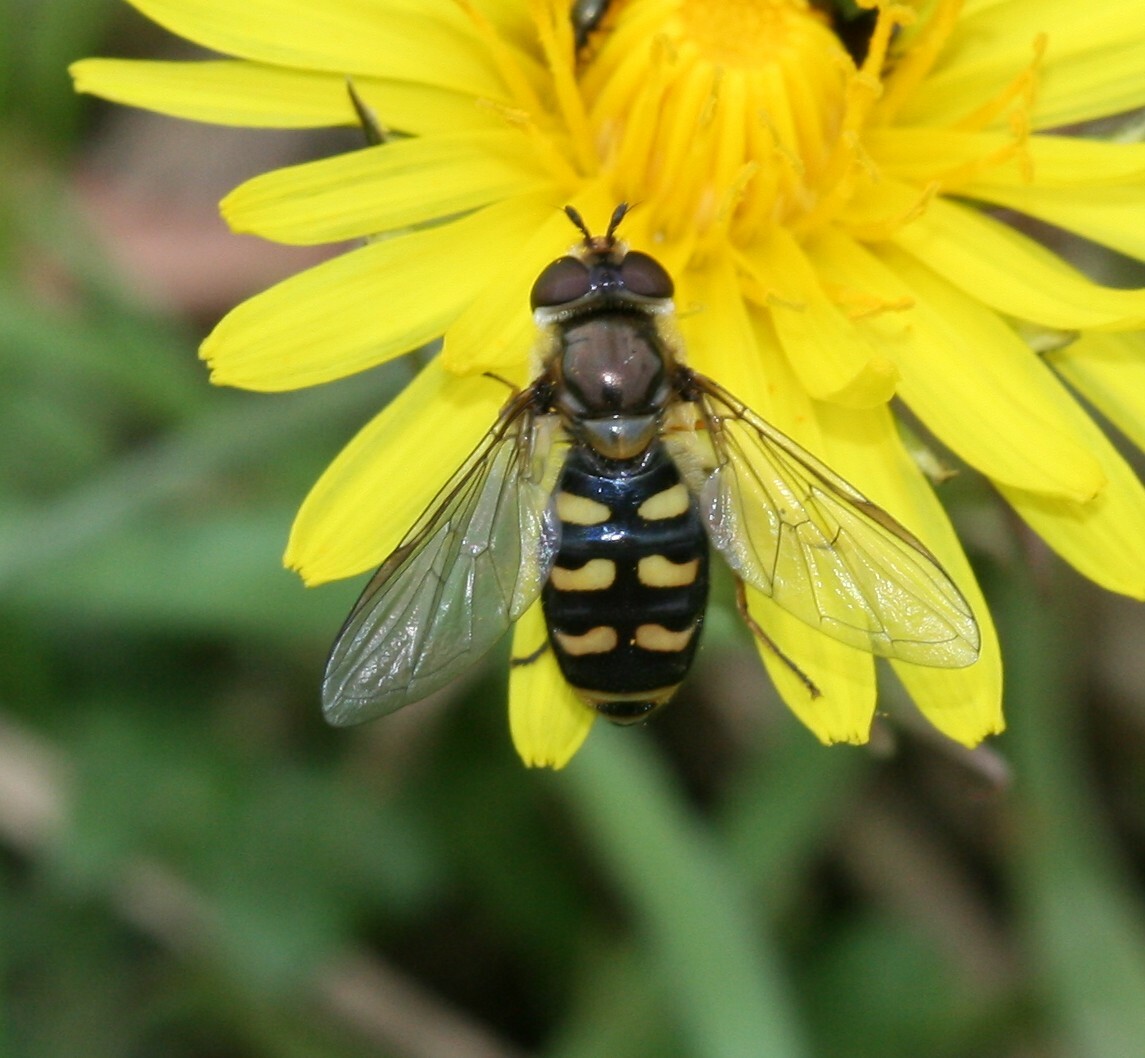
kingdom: Animalia
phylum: Arthropoda
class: Insecta
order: Diptera
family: Syrphidae
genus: Eupeodes
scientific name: Eupeodes luniger
